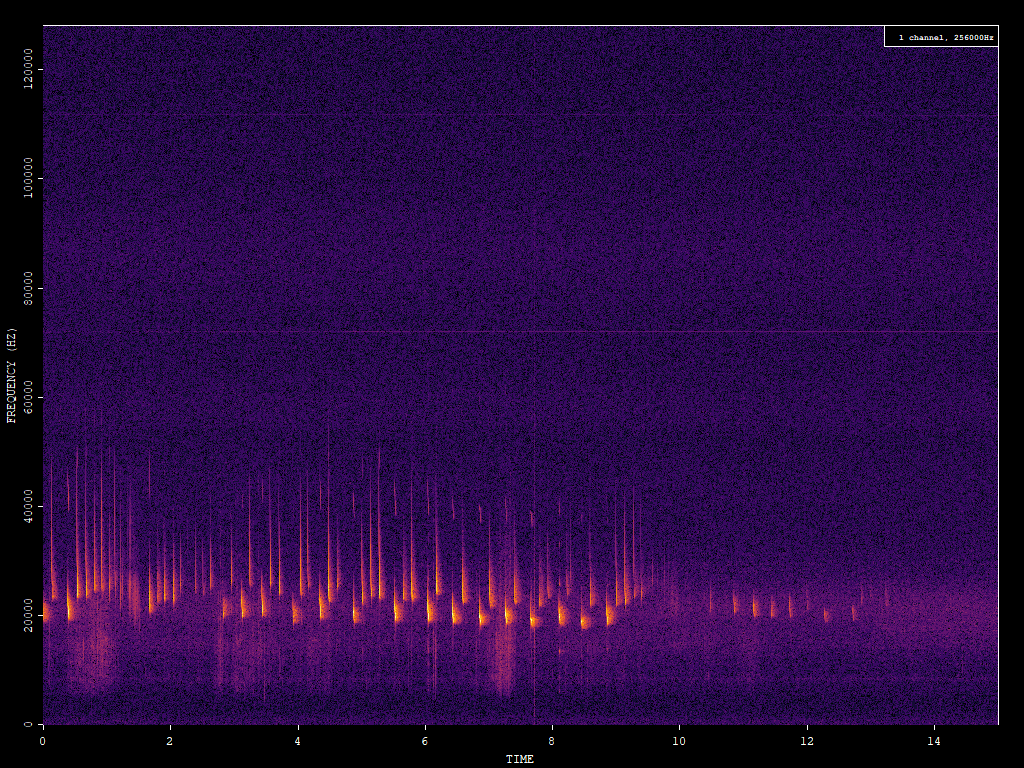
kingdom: Animalia
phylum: Chordata
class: Mammalia
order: Chiroptera
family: Vespertilionidae
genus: Nyctalus
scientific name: Nyctalus noctula
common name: Noctule
